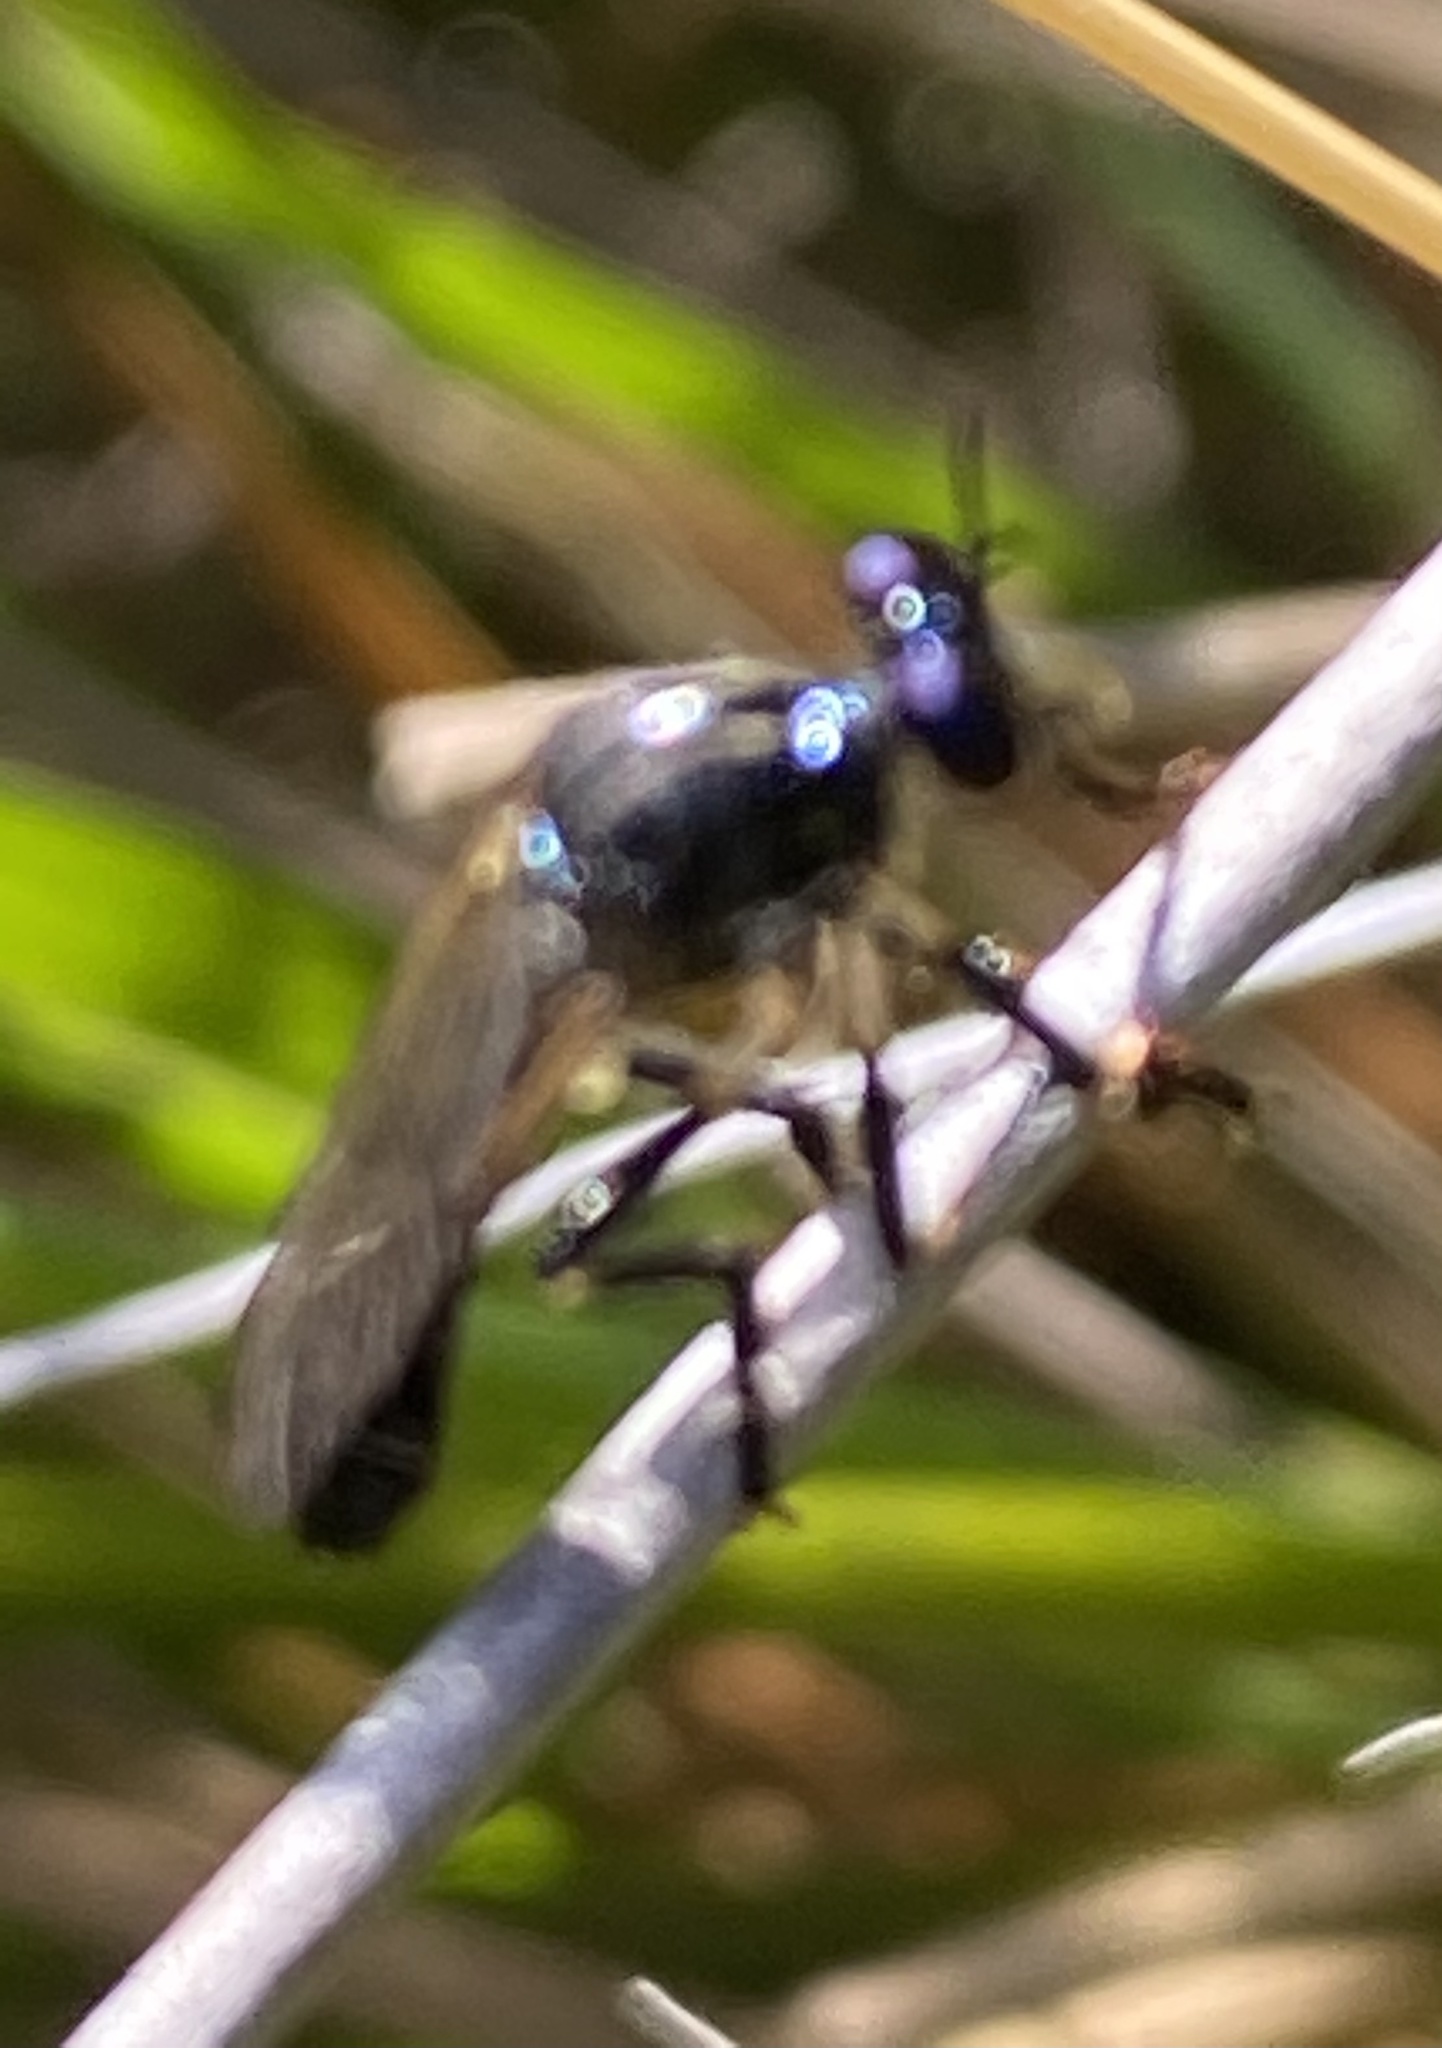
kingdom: Animalia
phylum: Arthropoda
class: Insecta
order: Diptera
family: Asilidae
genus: Dioctria
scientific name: Dioctria cothurnata
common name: Scarce red-legged robberfly
